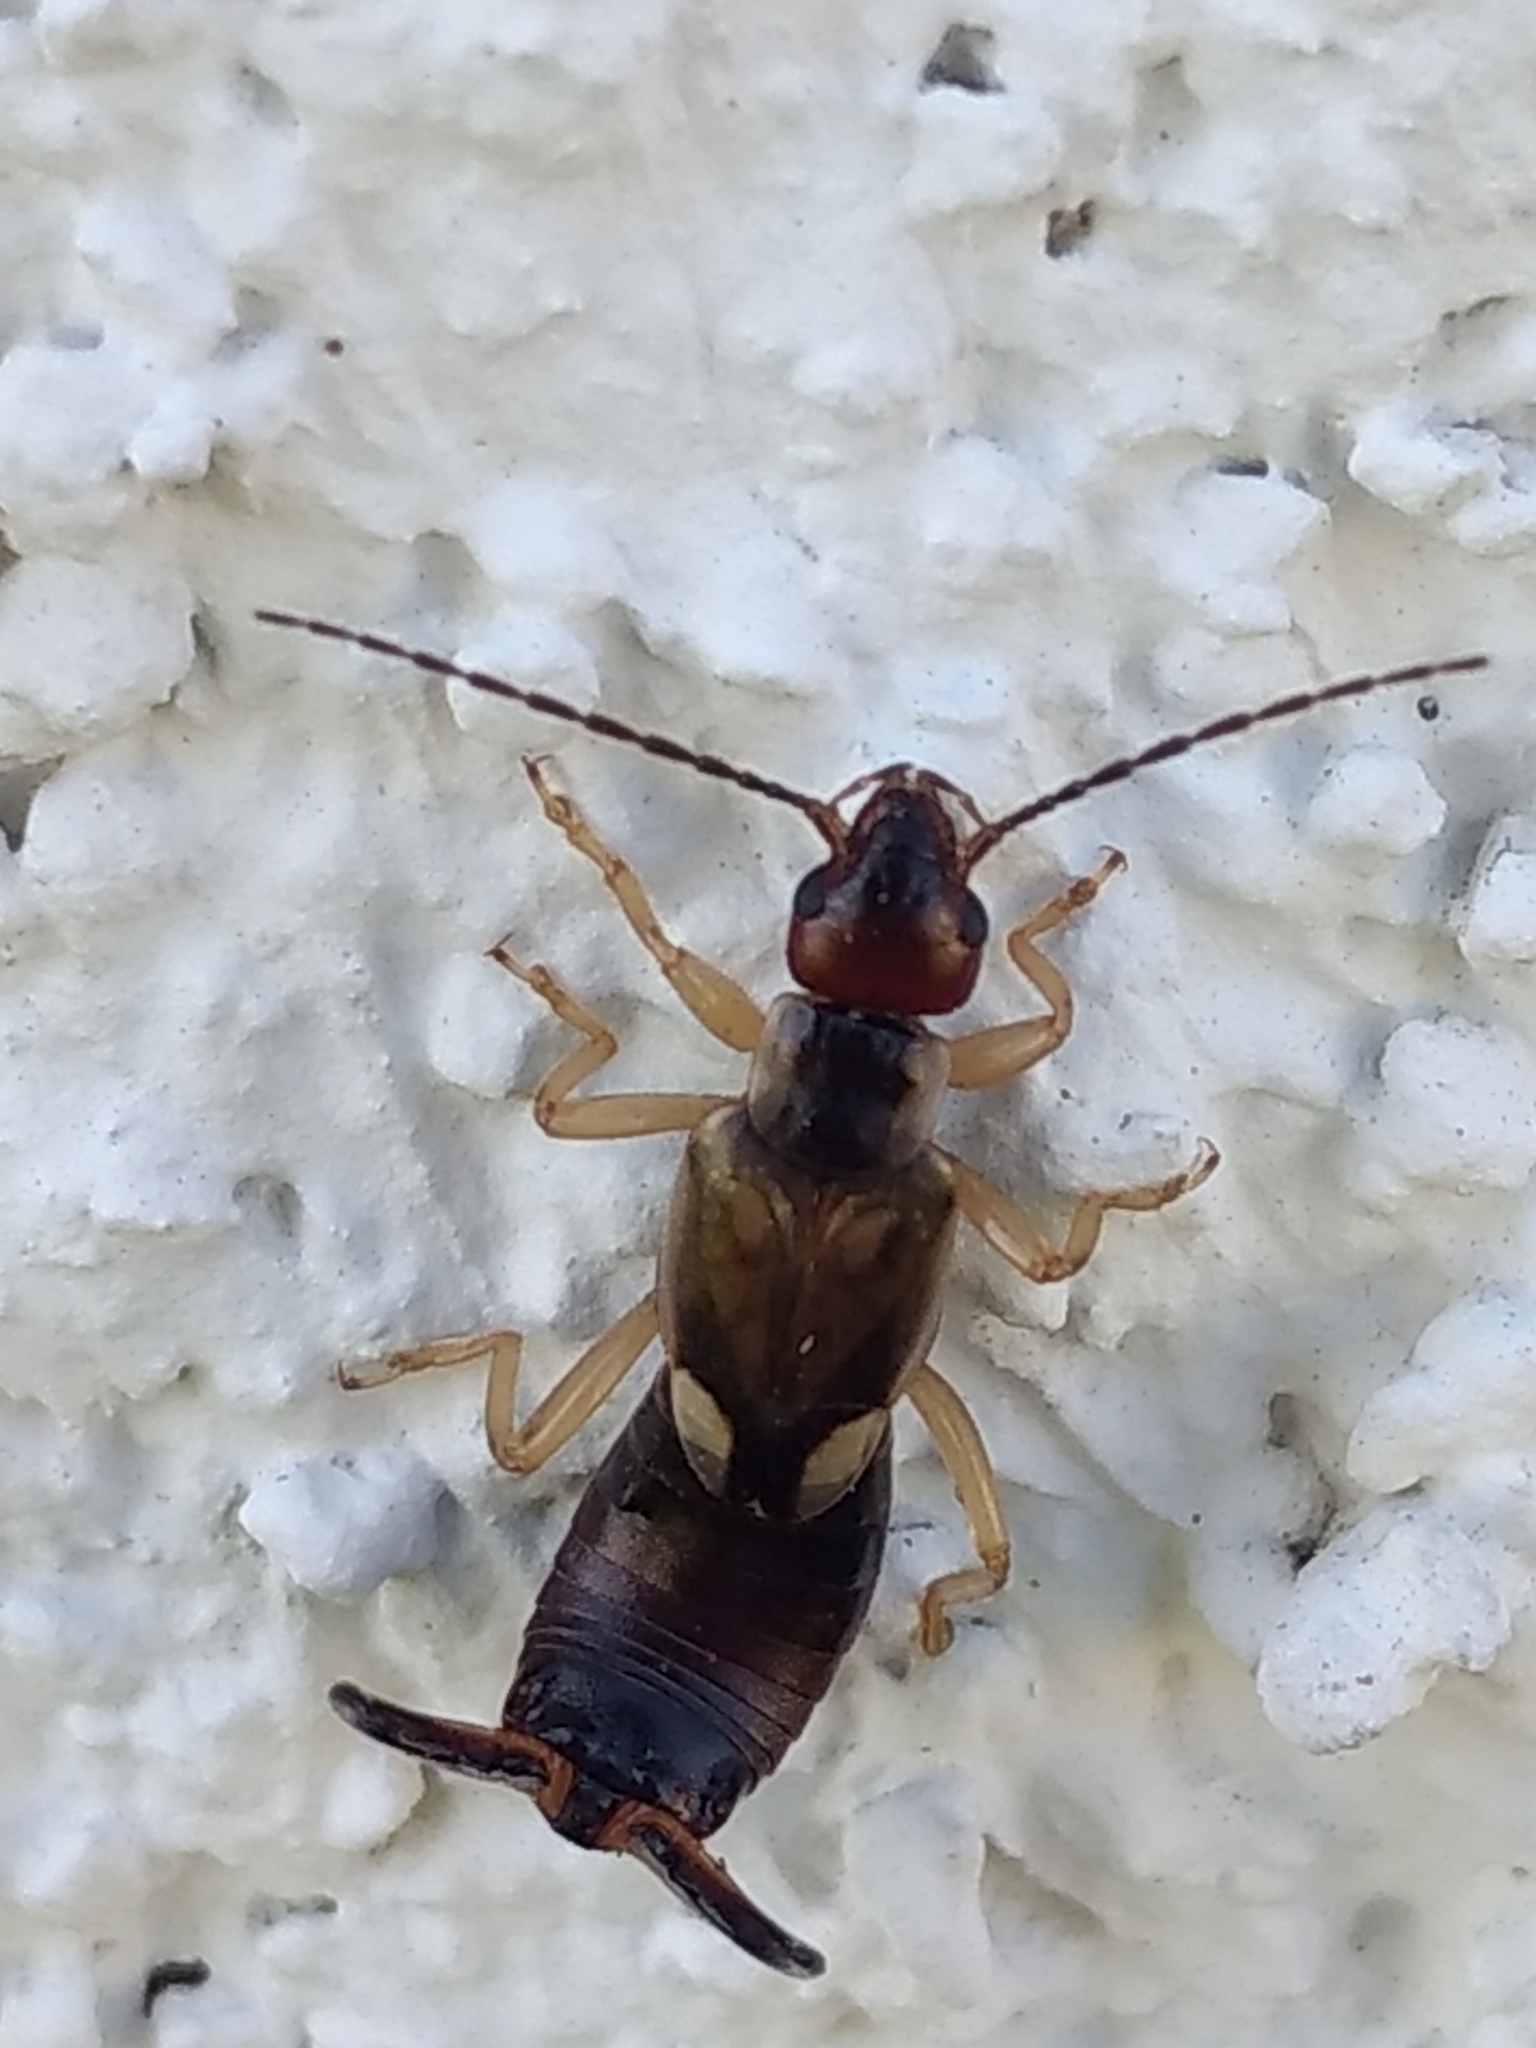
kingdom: Animalia
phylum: Arthropoda
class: Insecta
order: Dermaptera
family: Forficulidae
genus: Forficula
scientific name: Forficula
